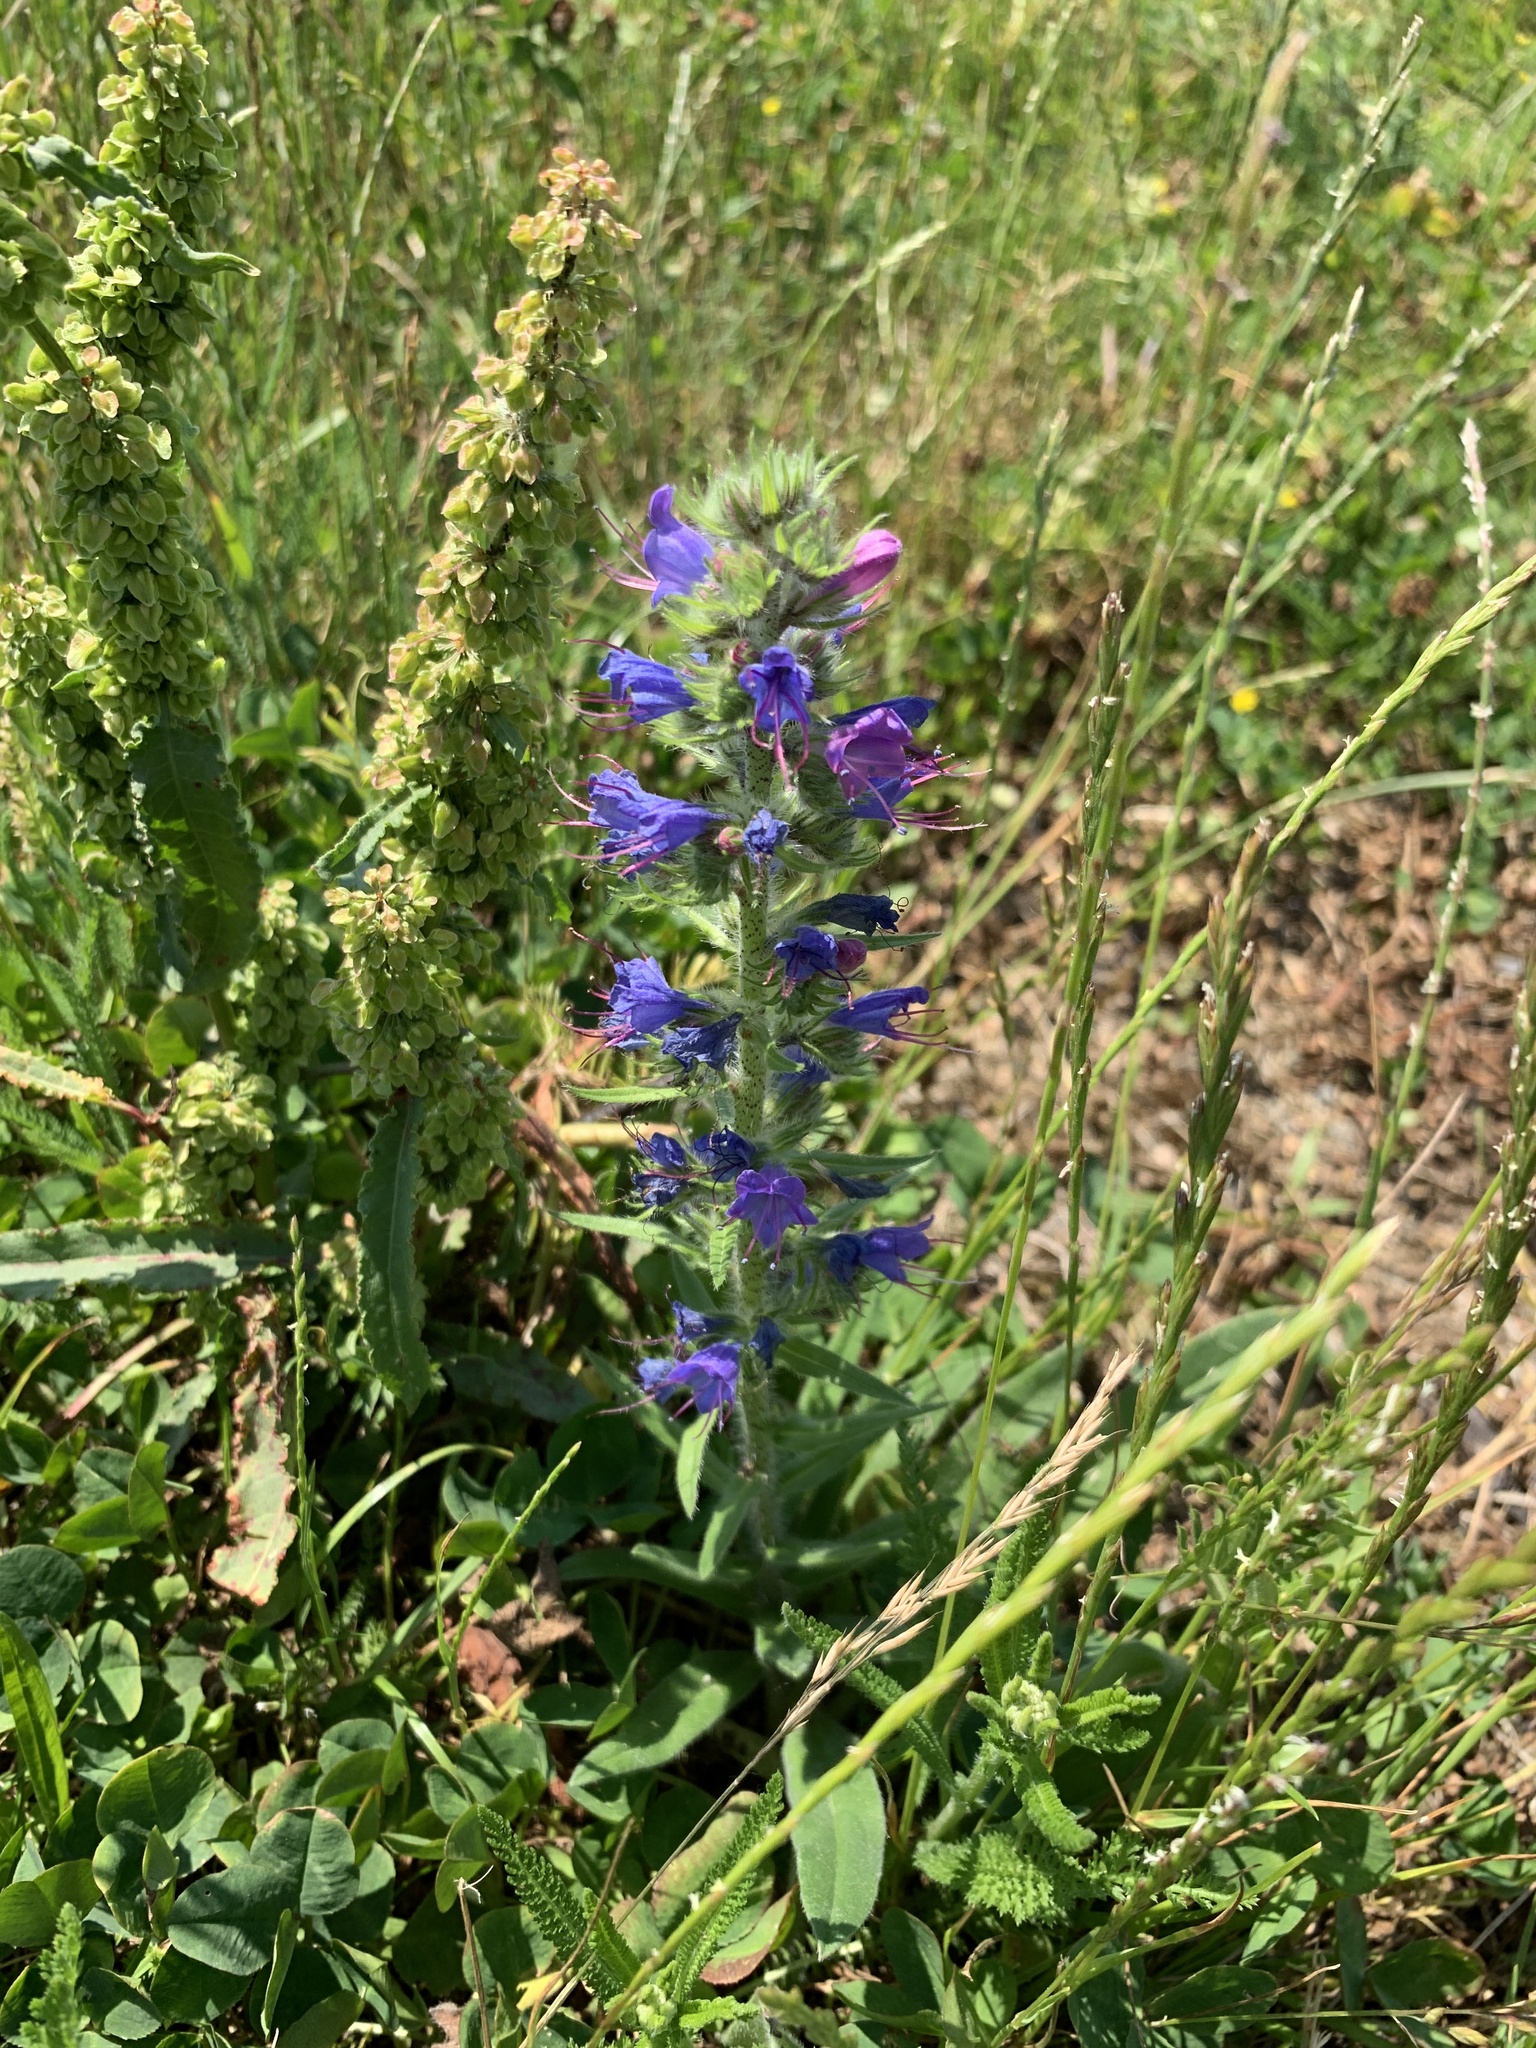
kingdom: Plantae
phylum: Tracheophyta
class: Magnoliopsida
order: Boraginales
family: Boraginaceae
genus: Echium
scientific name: Echium vulgare
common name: Common viper's bugloss
